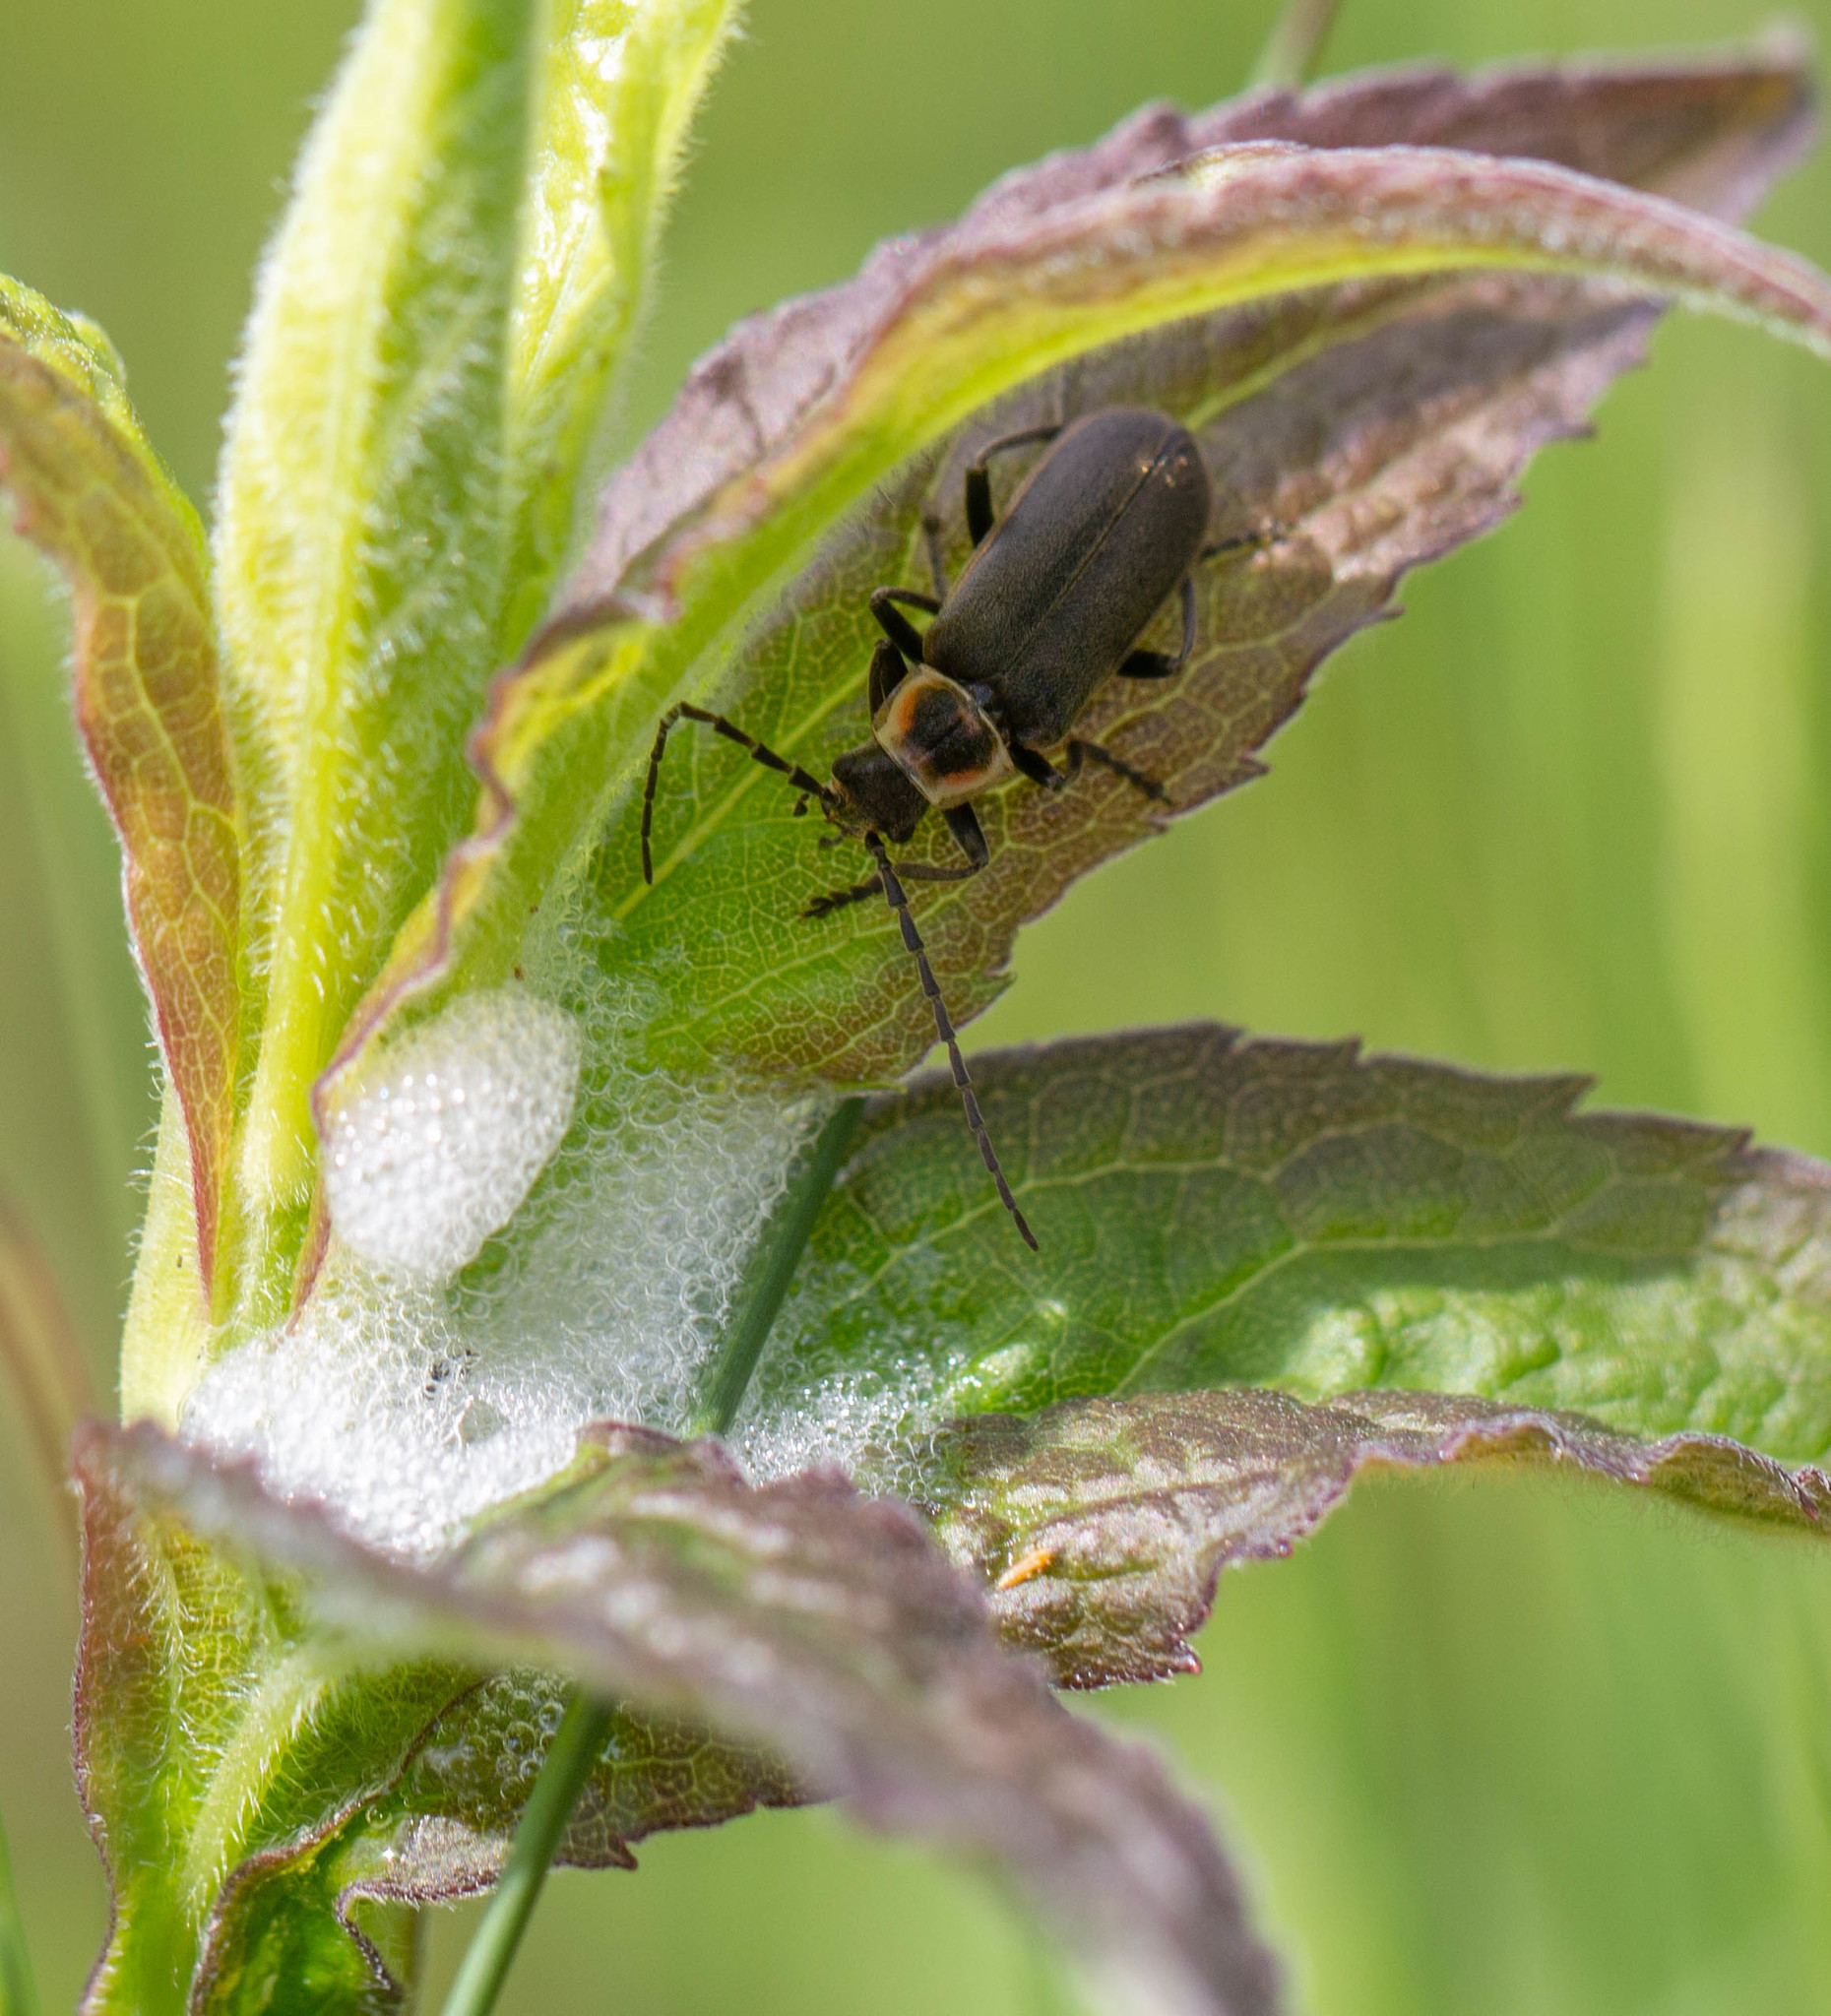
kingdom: Animalia
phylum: Arthropoda
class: Insecta
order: Coleoptera
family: Cantharidae
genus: Atalantycha
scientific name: Atalantycha dentigera
